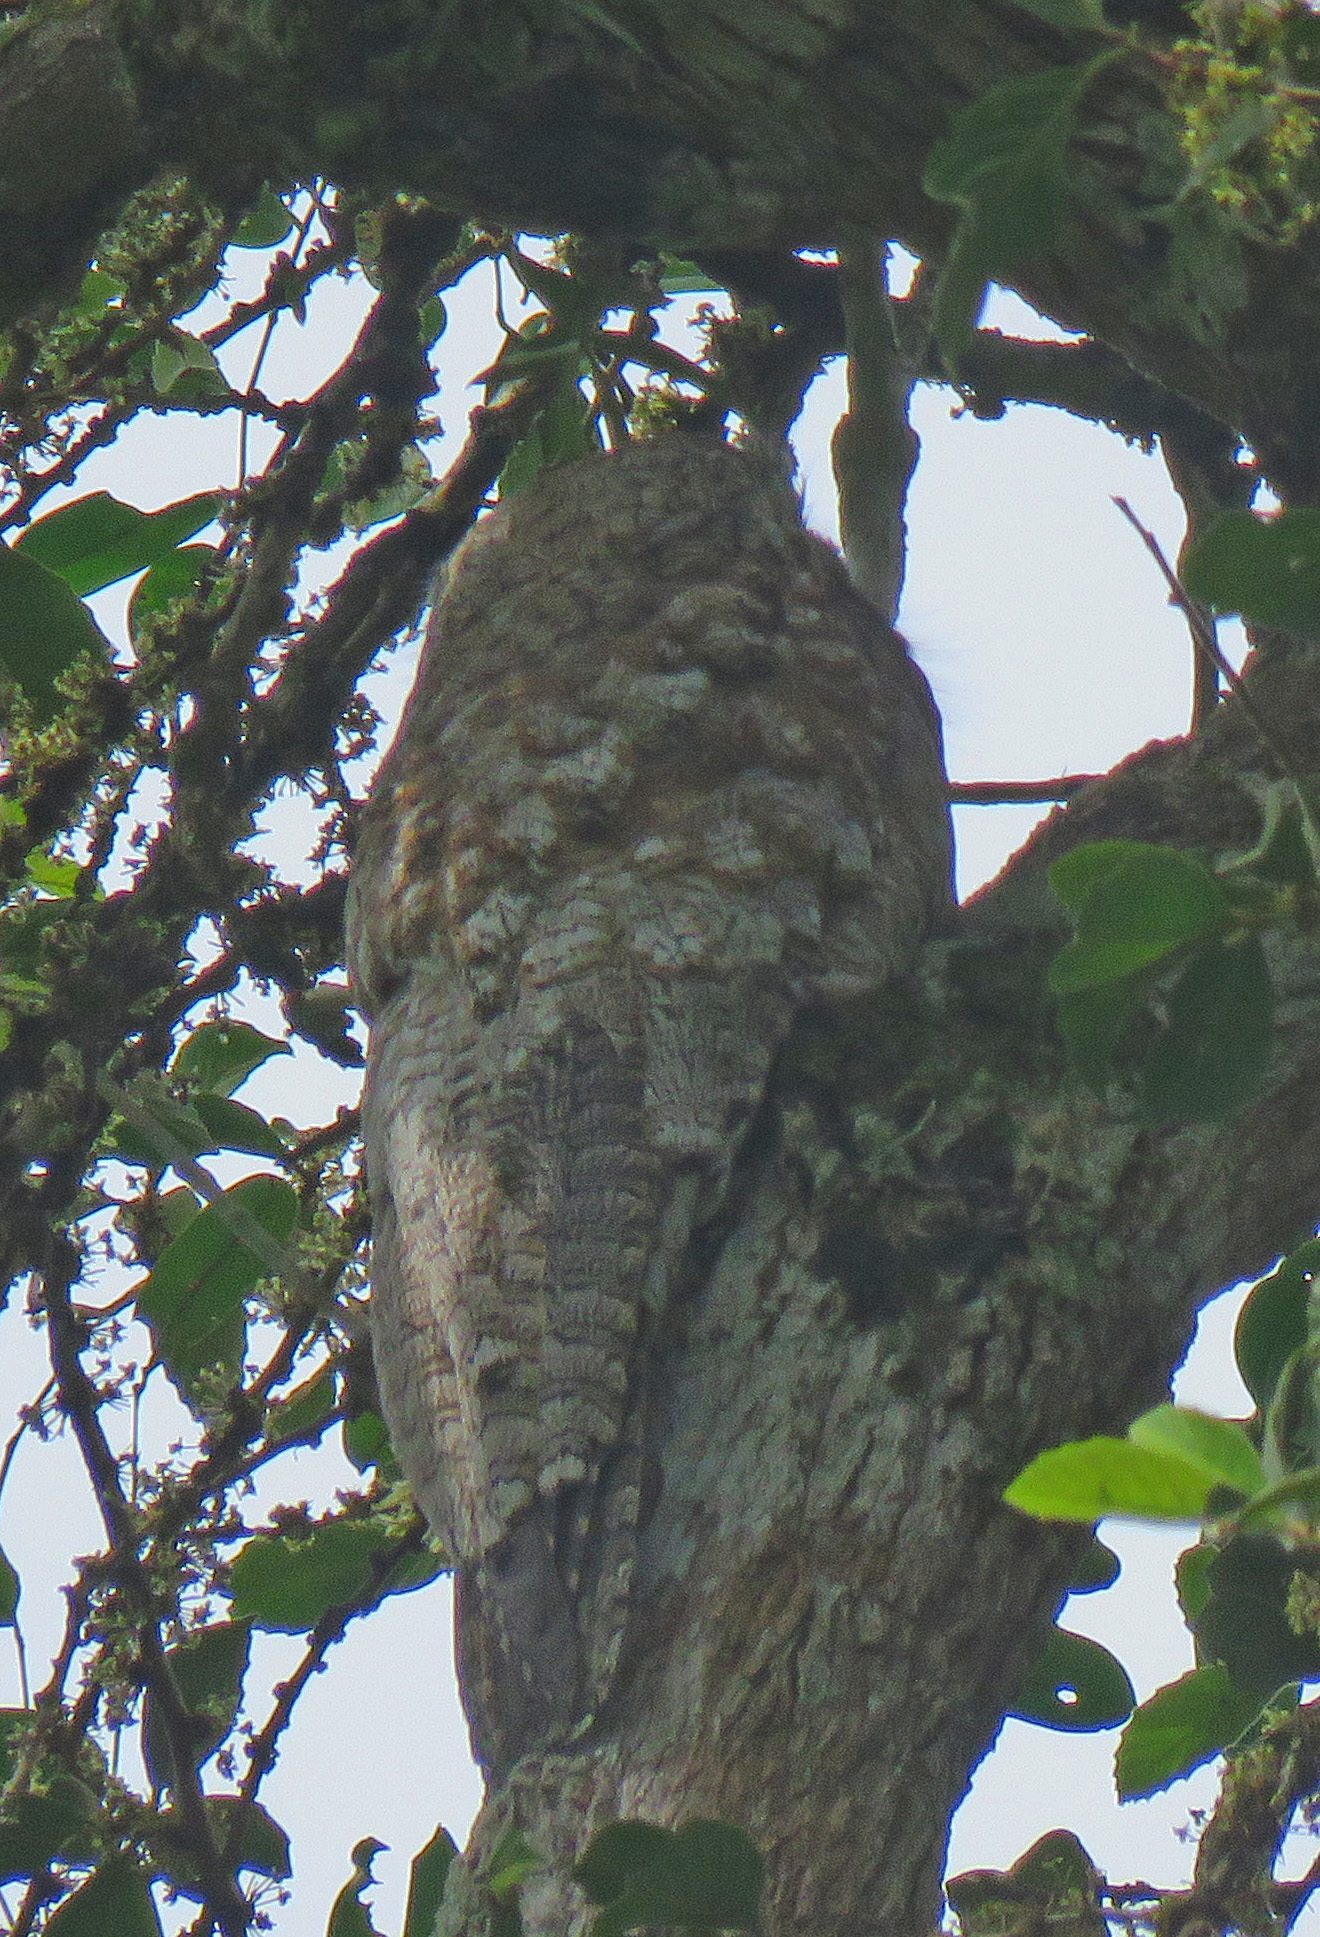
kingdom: Animalia
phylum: Chordata
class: Aves
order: Nyctibiiformes
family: Nyctibiidae
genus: Nyctibius
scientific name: Nyctibius grandis
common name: Great potoo
